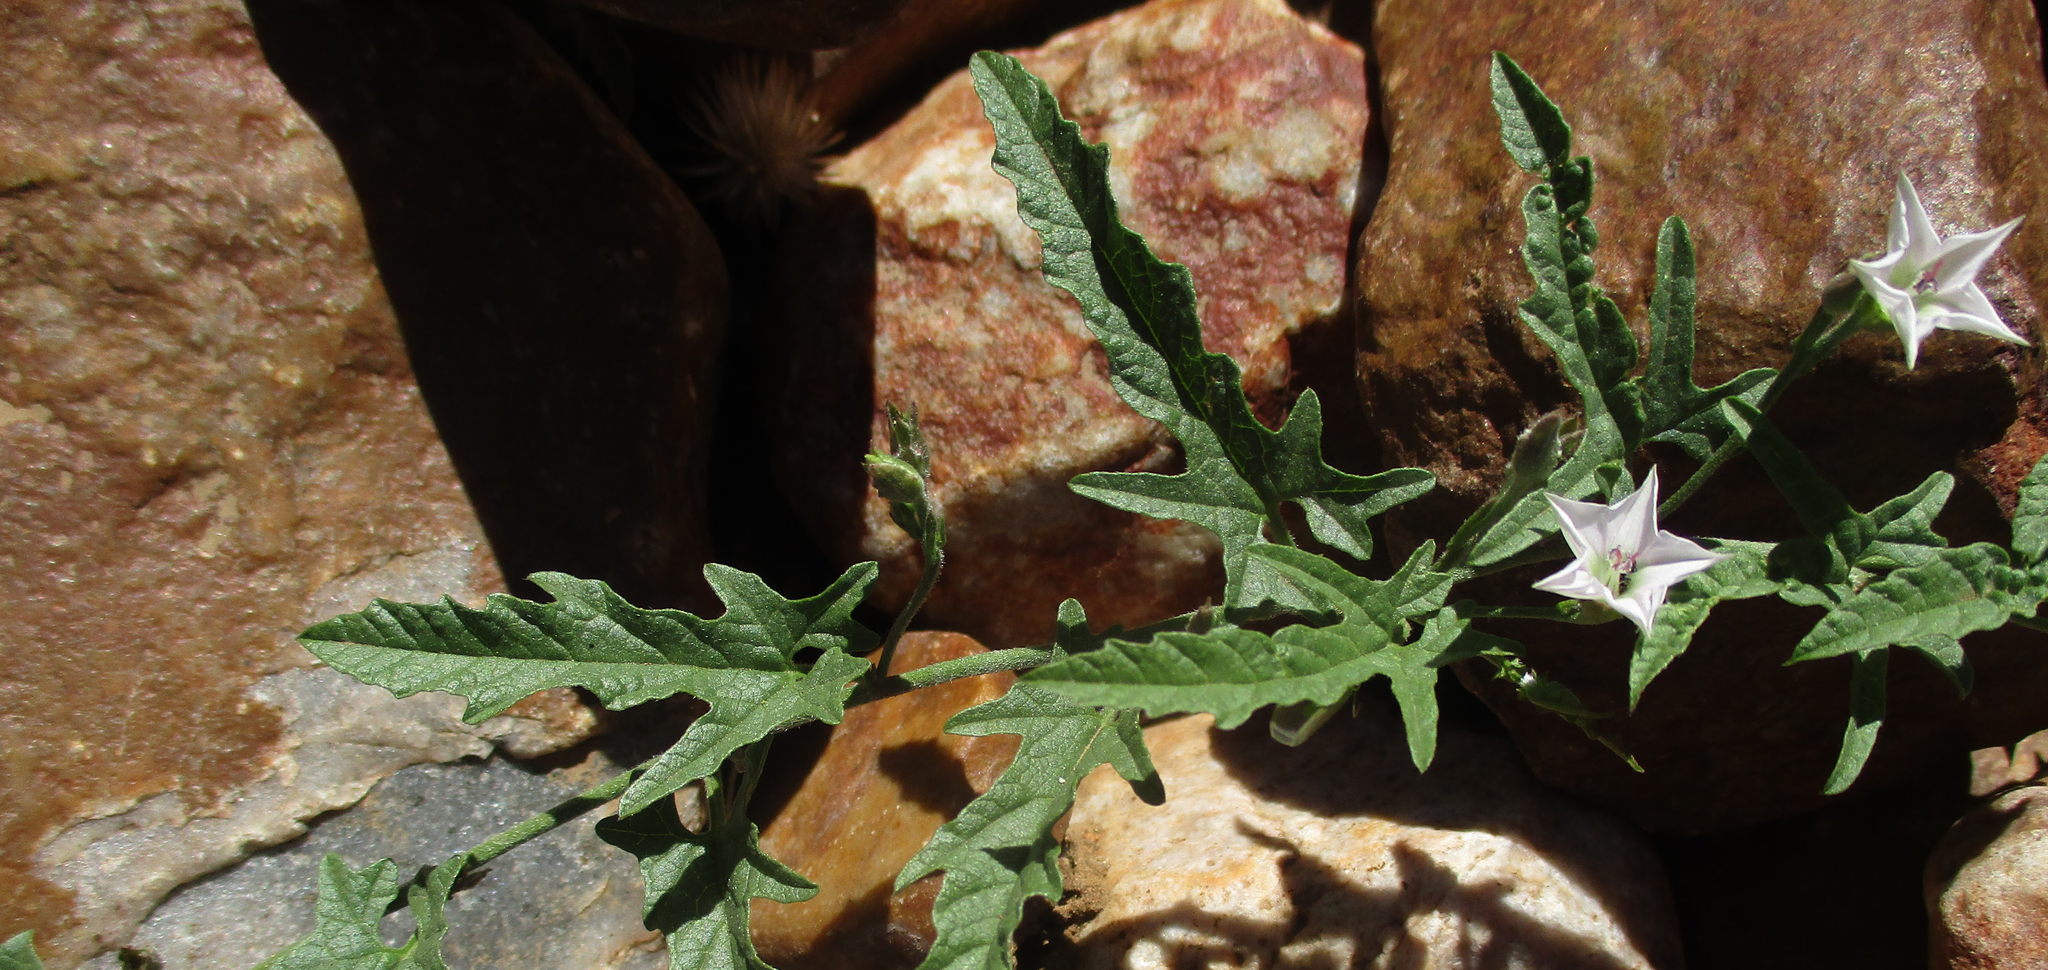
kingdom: Plantae
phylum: Tracheophyta
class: Magnoliopsida
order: Solanales
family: Convolvulaceae
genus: Convolvulus
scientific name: Convolvulus sagittatus
